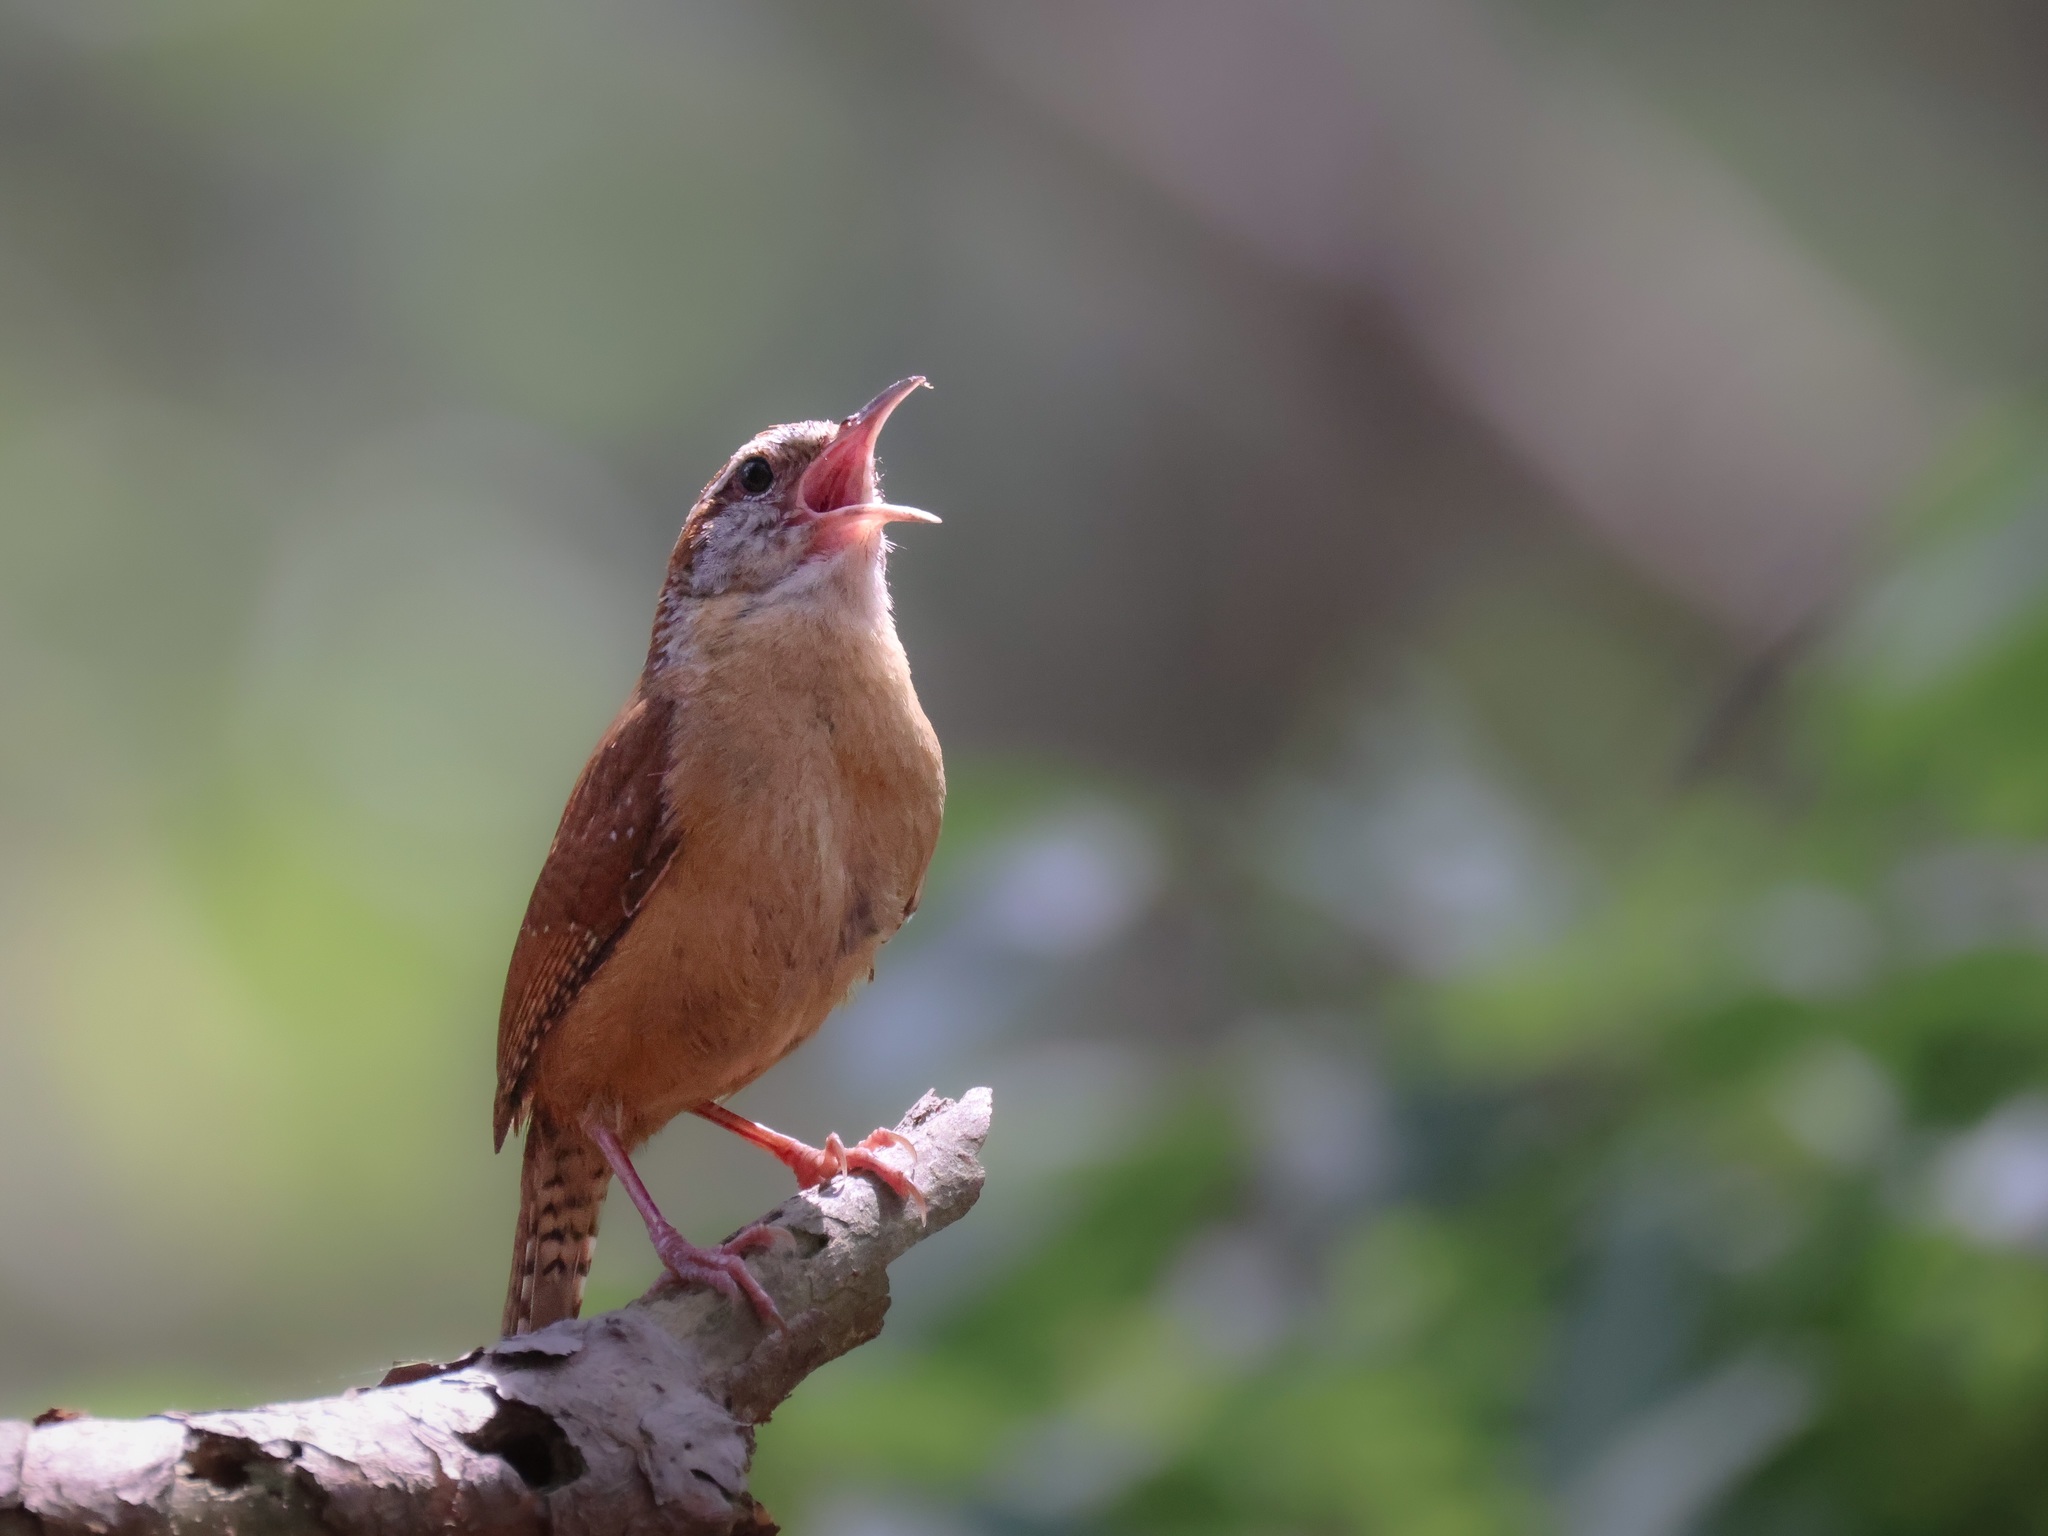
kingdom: Animalia
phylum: Chordata
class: Aves
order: Passeriformes
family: Troglodytidae
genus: Thryothorus
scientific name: Thryothorus ludovicianus
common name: Carolina wren
